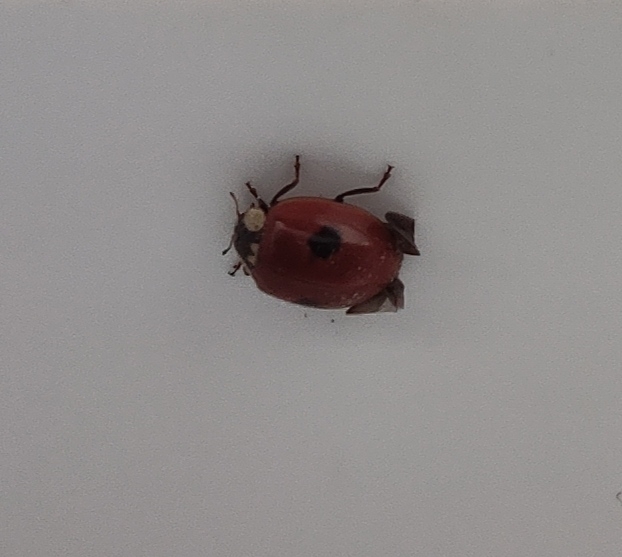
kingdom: Animalia
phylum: Arthropoda
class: Insecta
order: Coleoptera
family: Coccinellidae
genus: Adalia
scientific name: Adalia bipunctata
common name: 2-spot ladybird
